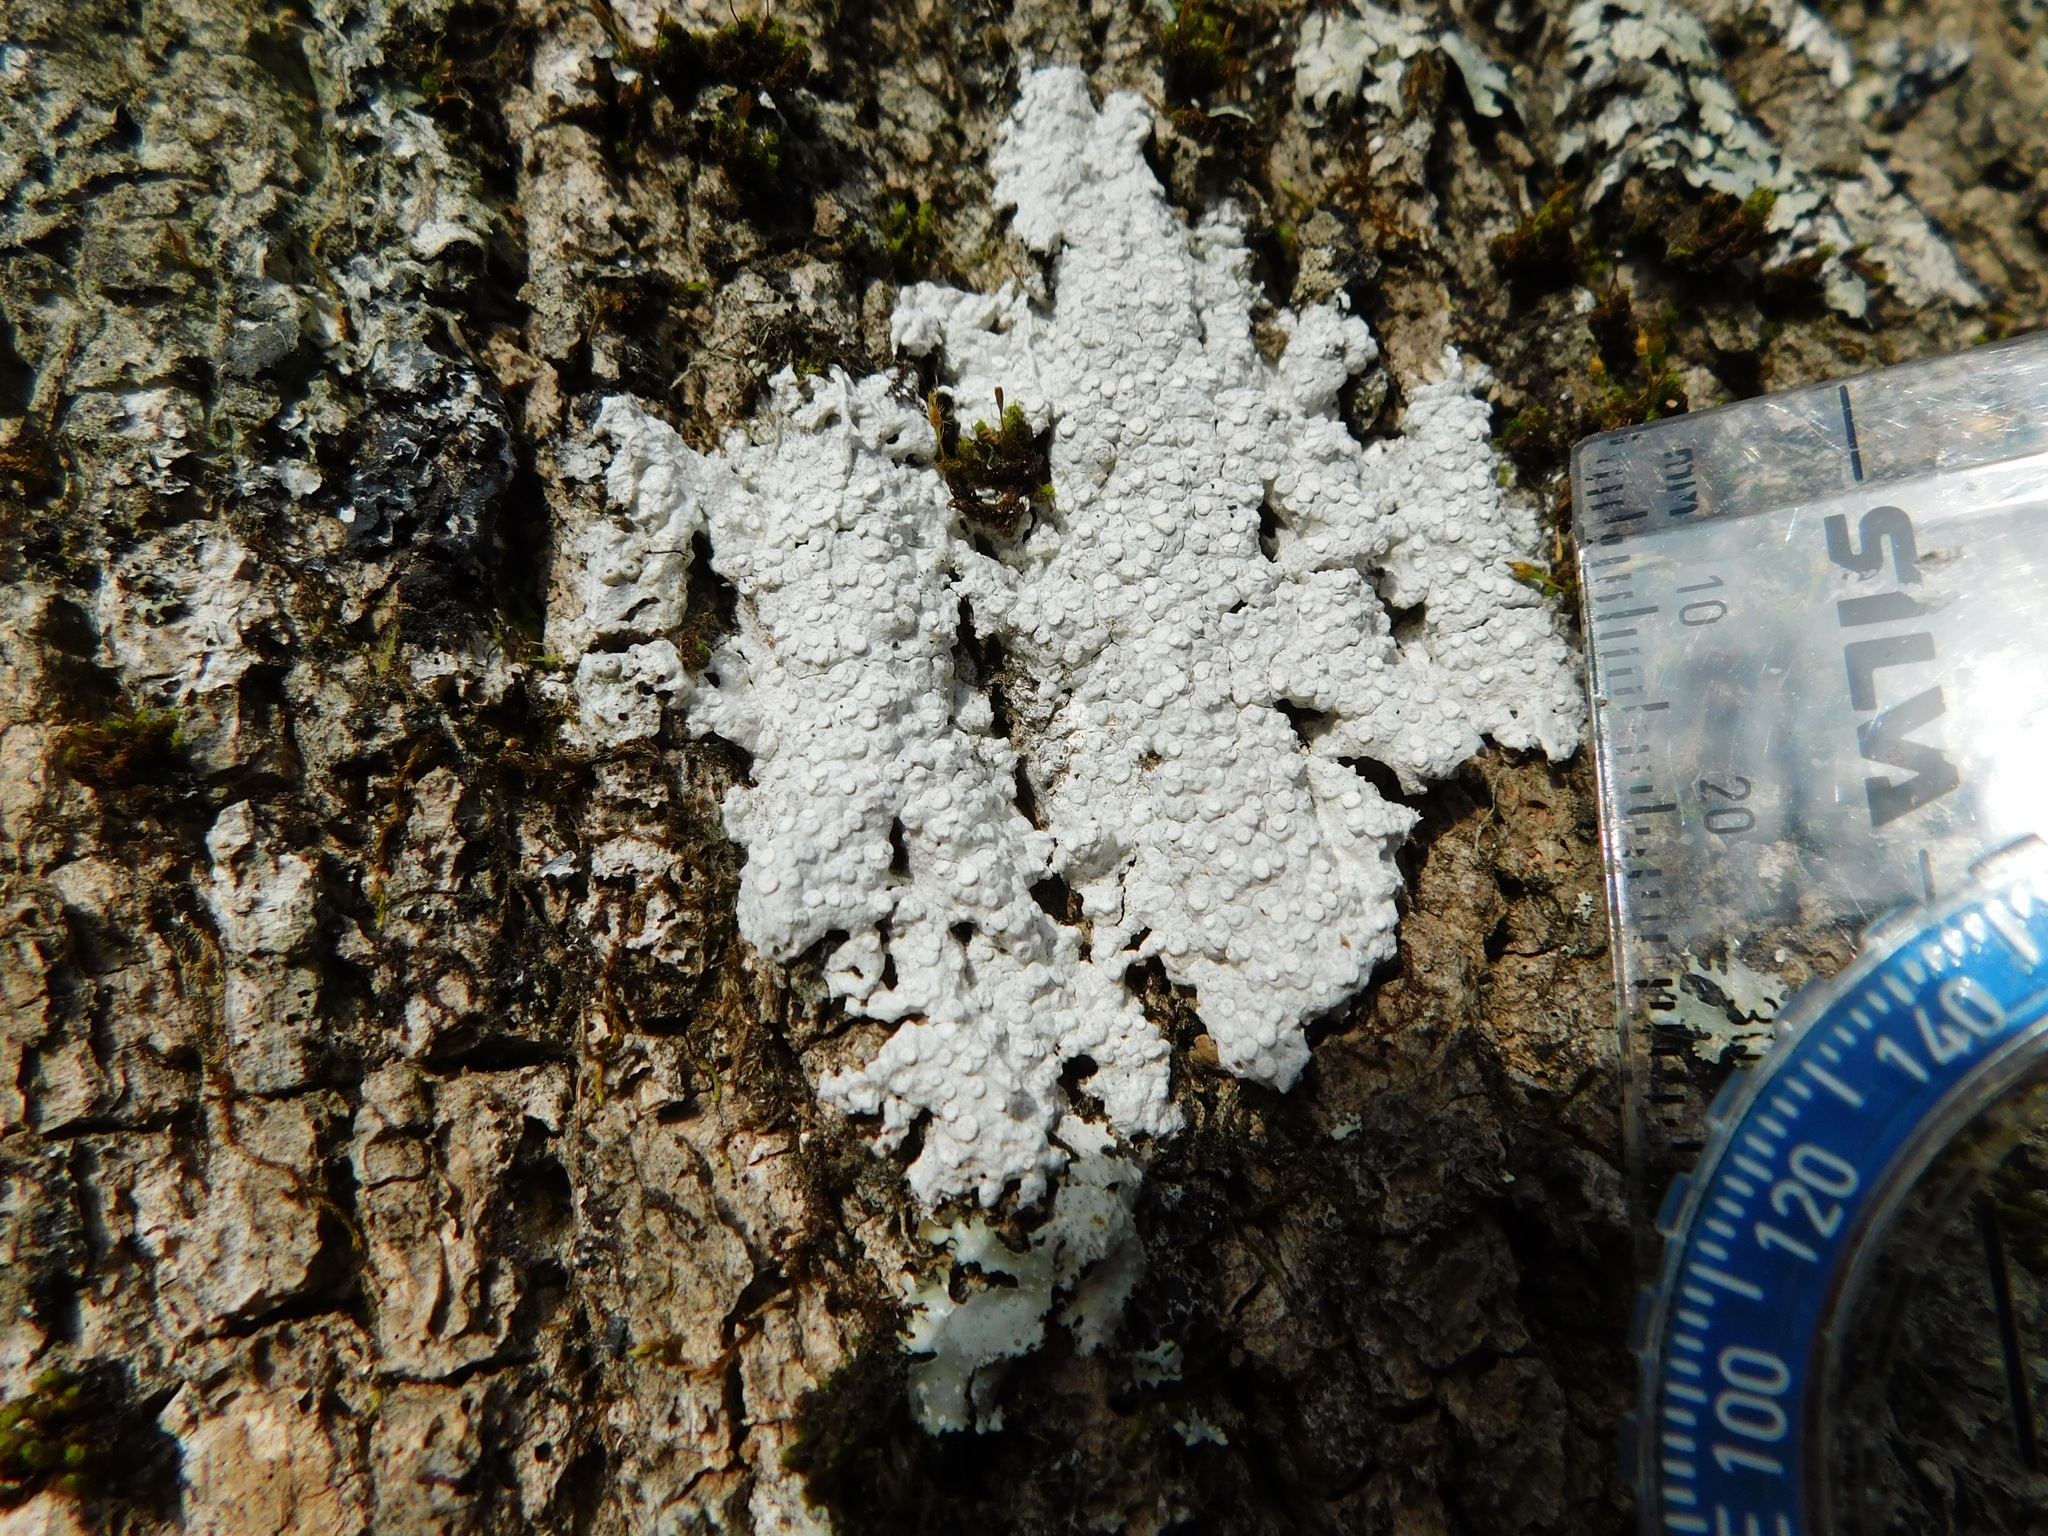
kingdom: Fungi
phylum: Ascomycota
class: Lecanoromycetes
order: Pertusariales
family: Varicellariaceae
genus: Varicellaria
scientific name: Varicellaria velata
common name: Rimmed wart lichen
